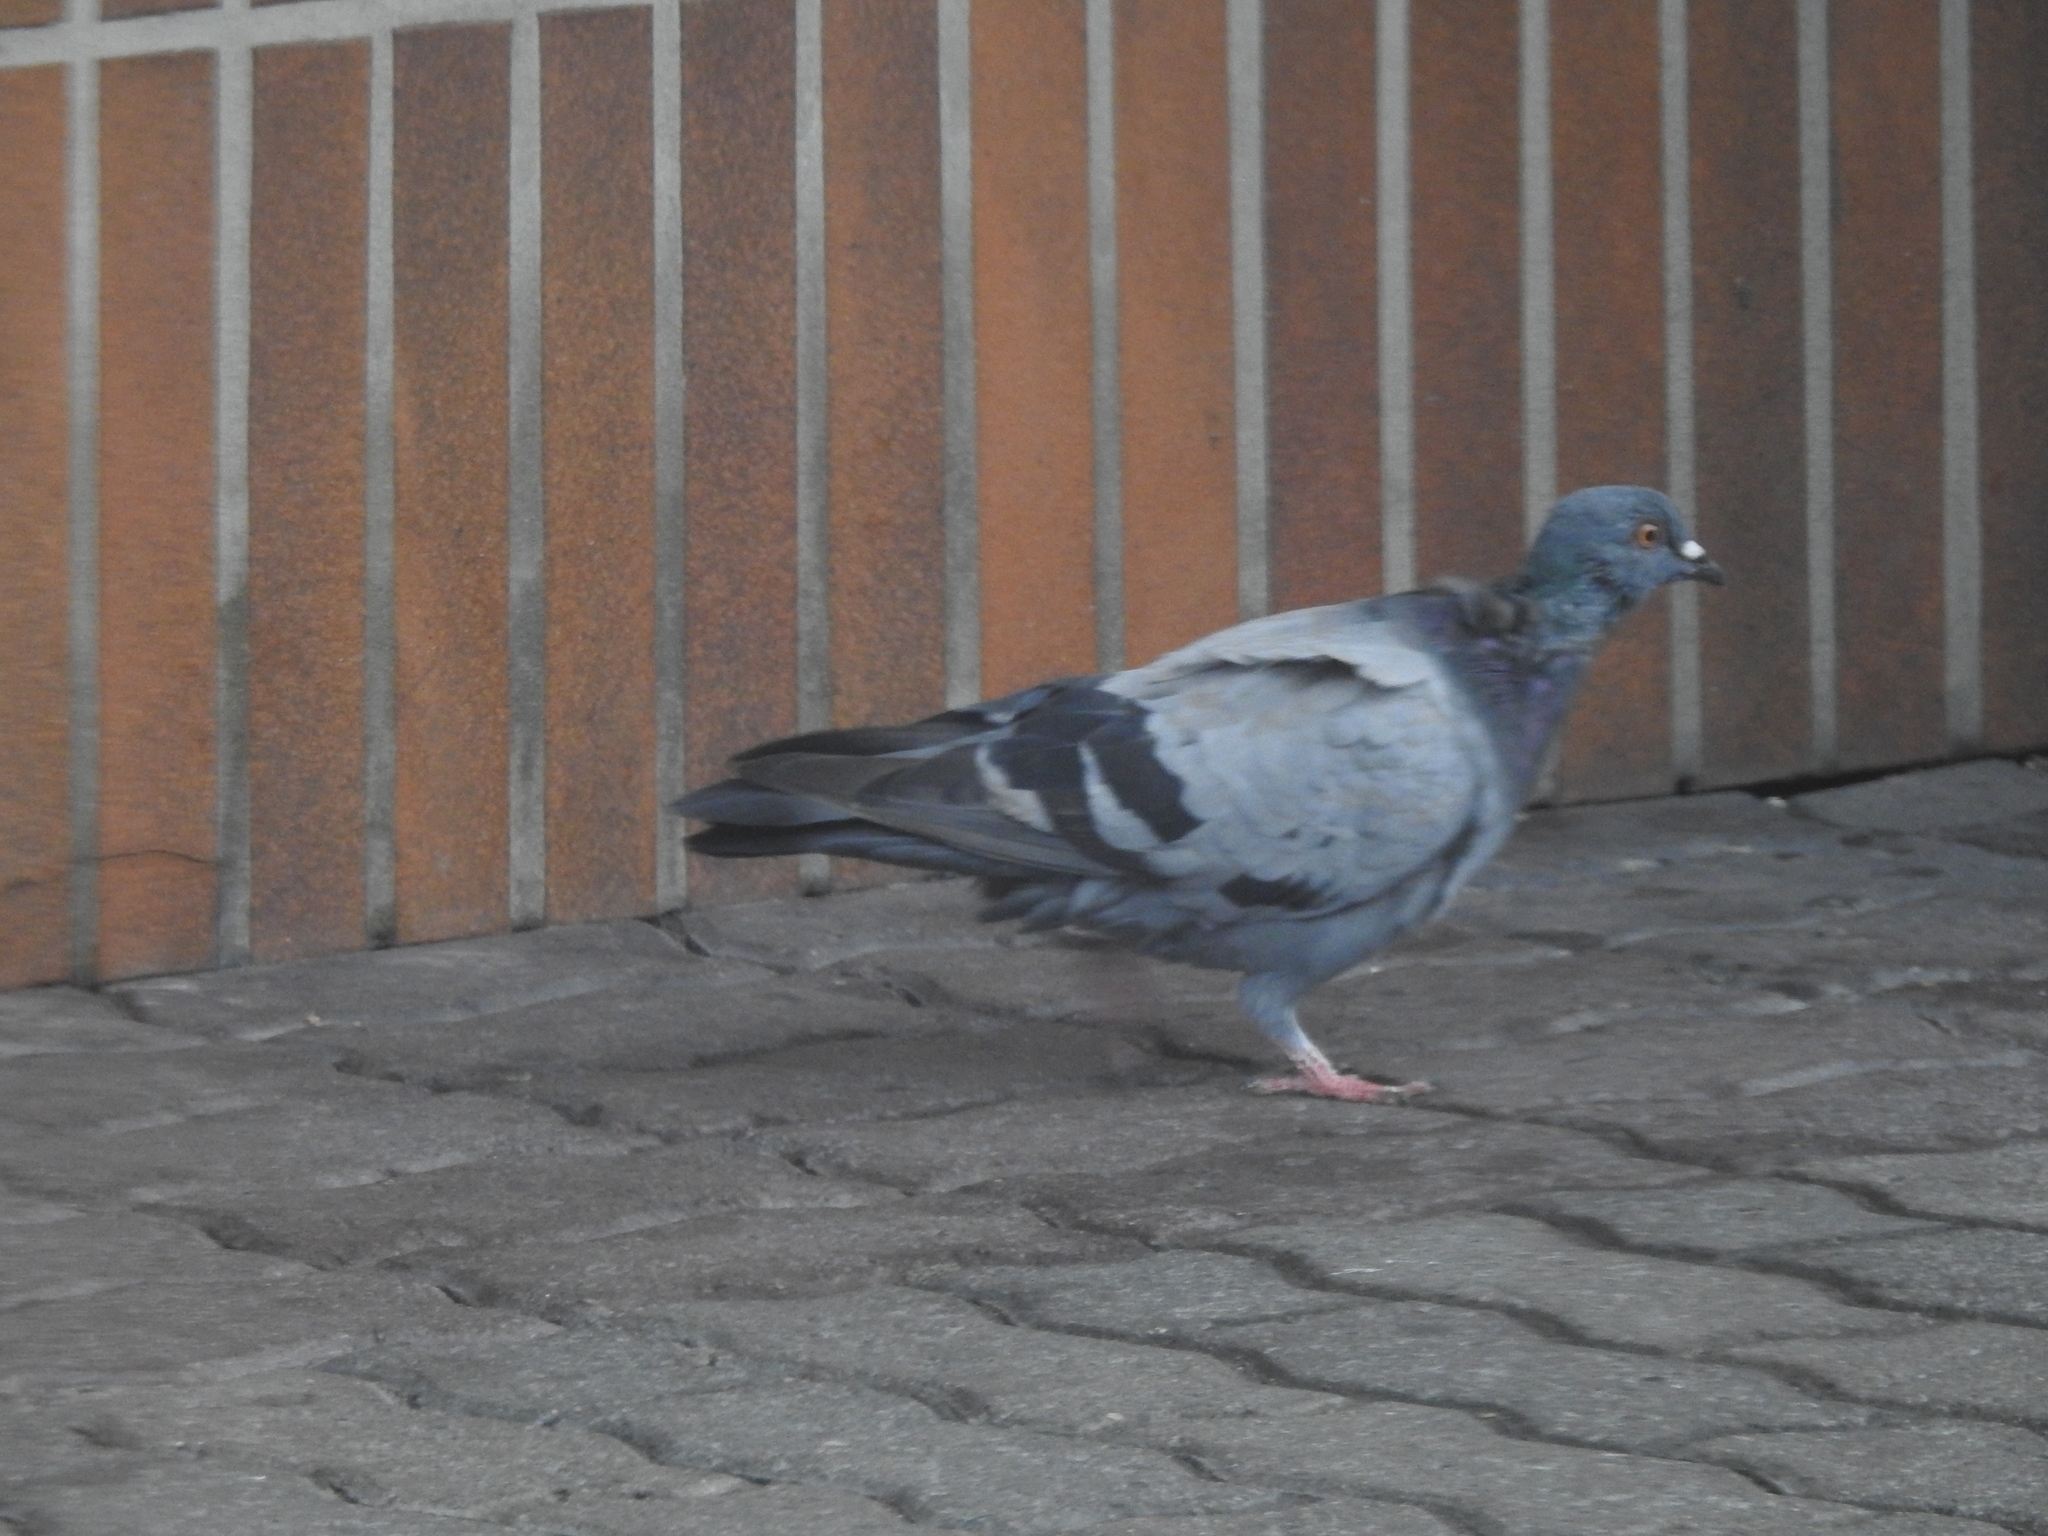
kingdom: Animalia
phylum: Chordata
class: Aves
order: Columbiformes
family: Columbidae
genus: Columba
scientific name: Columba livia
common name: Rock pigeon
